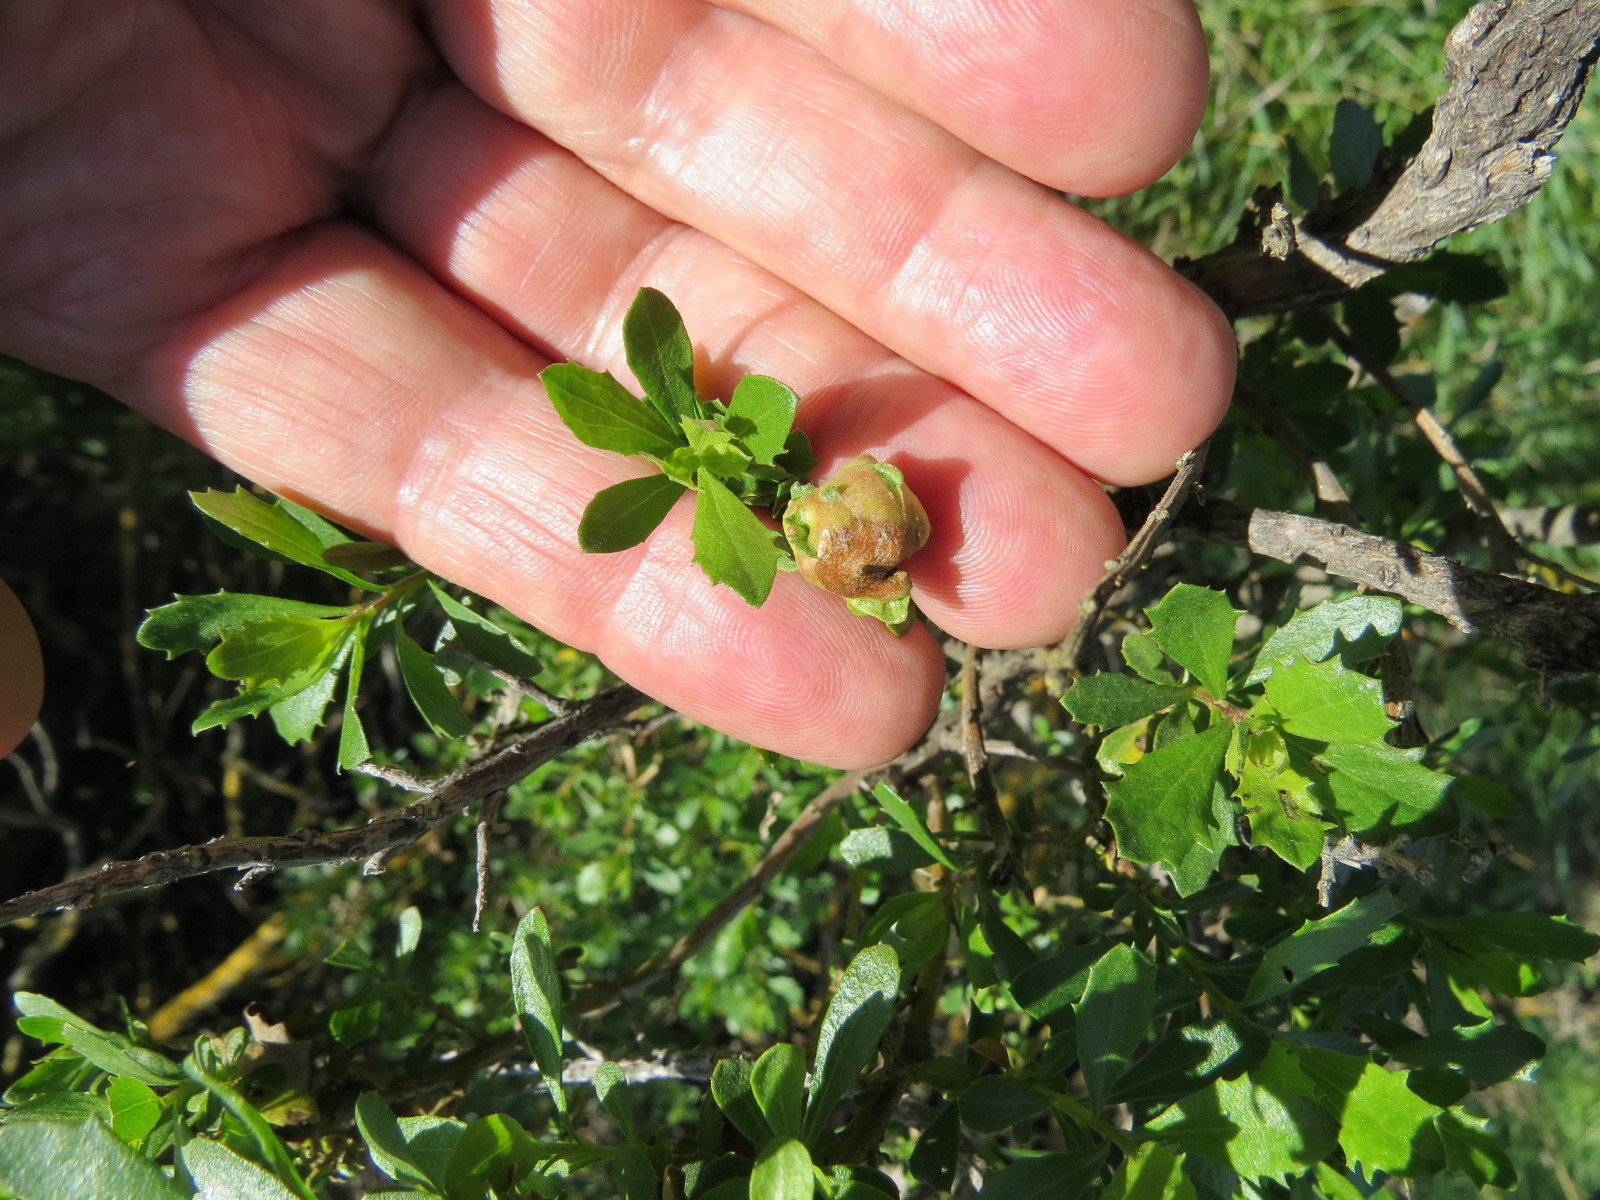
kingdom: Animalia
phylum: Arthropoda
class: Insecta
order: Diptera
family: Cecidomyiidae
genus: Rhopalomyia
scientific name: Rhopalomyia californica
